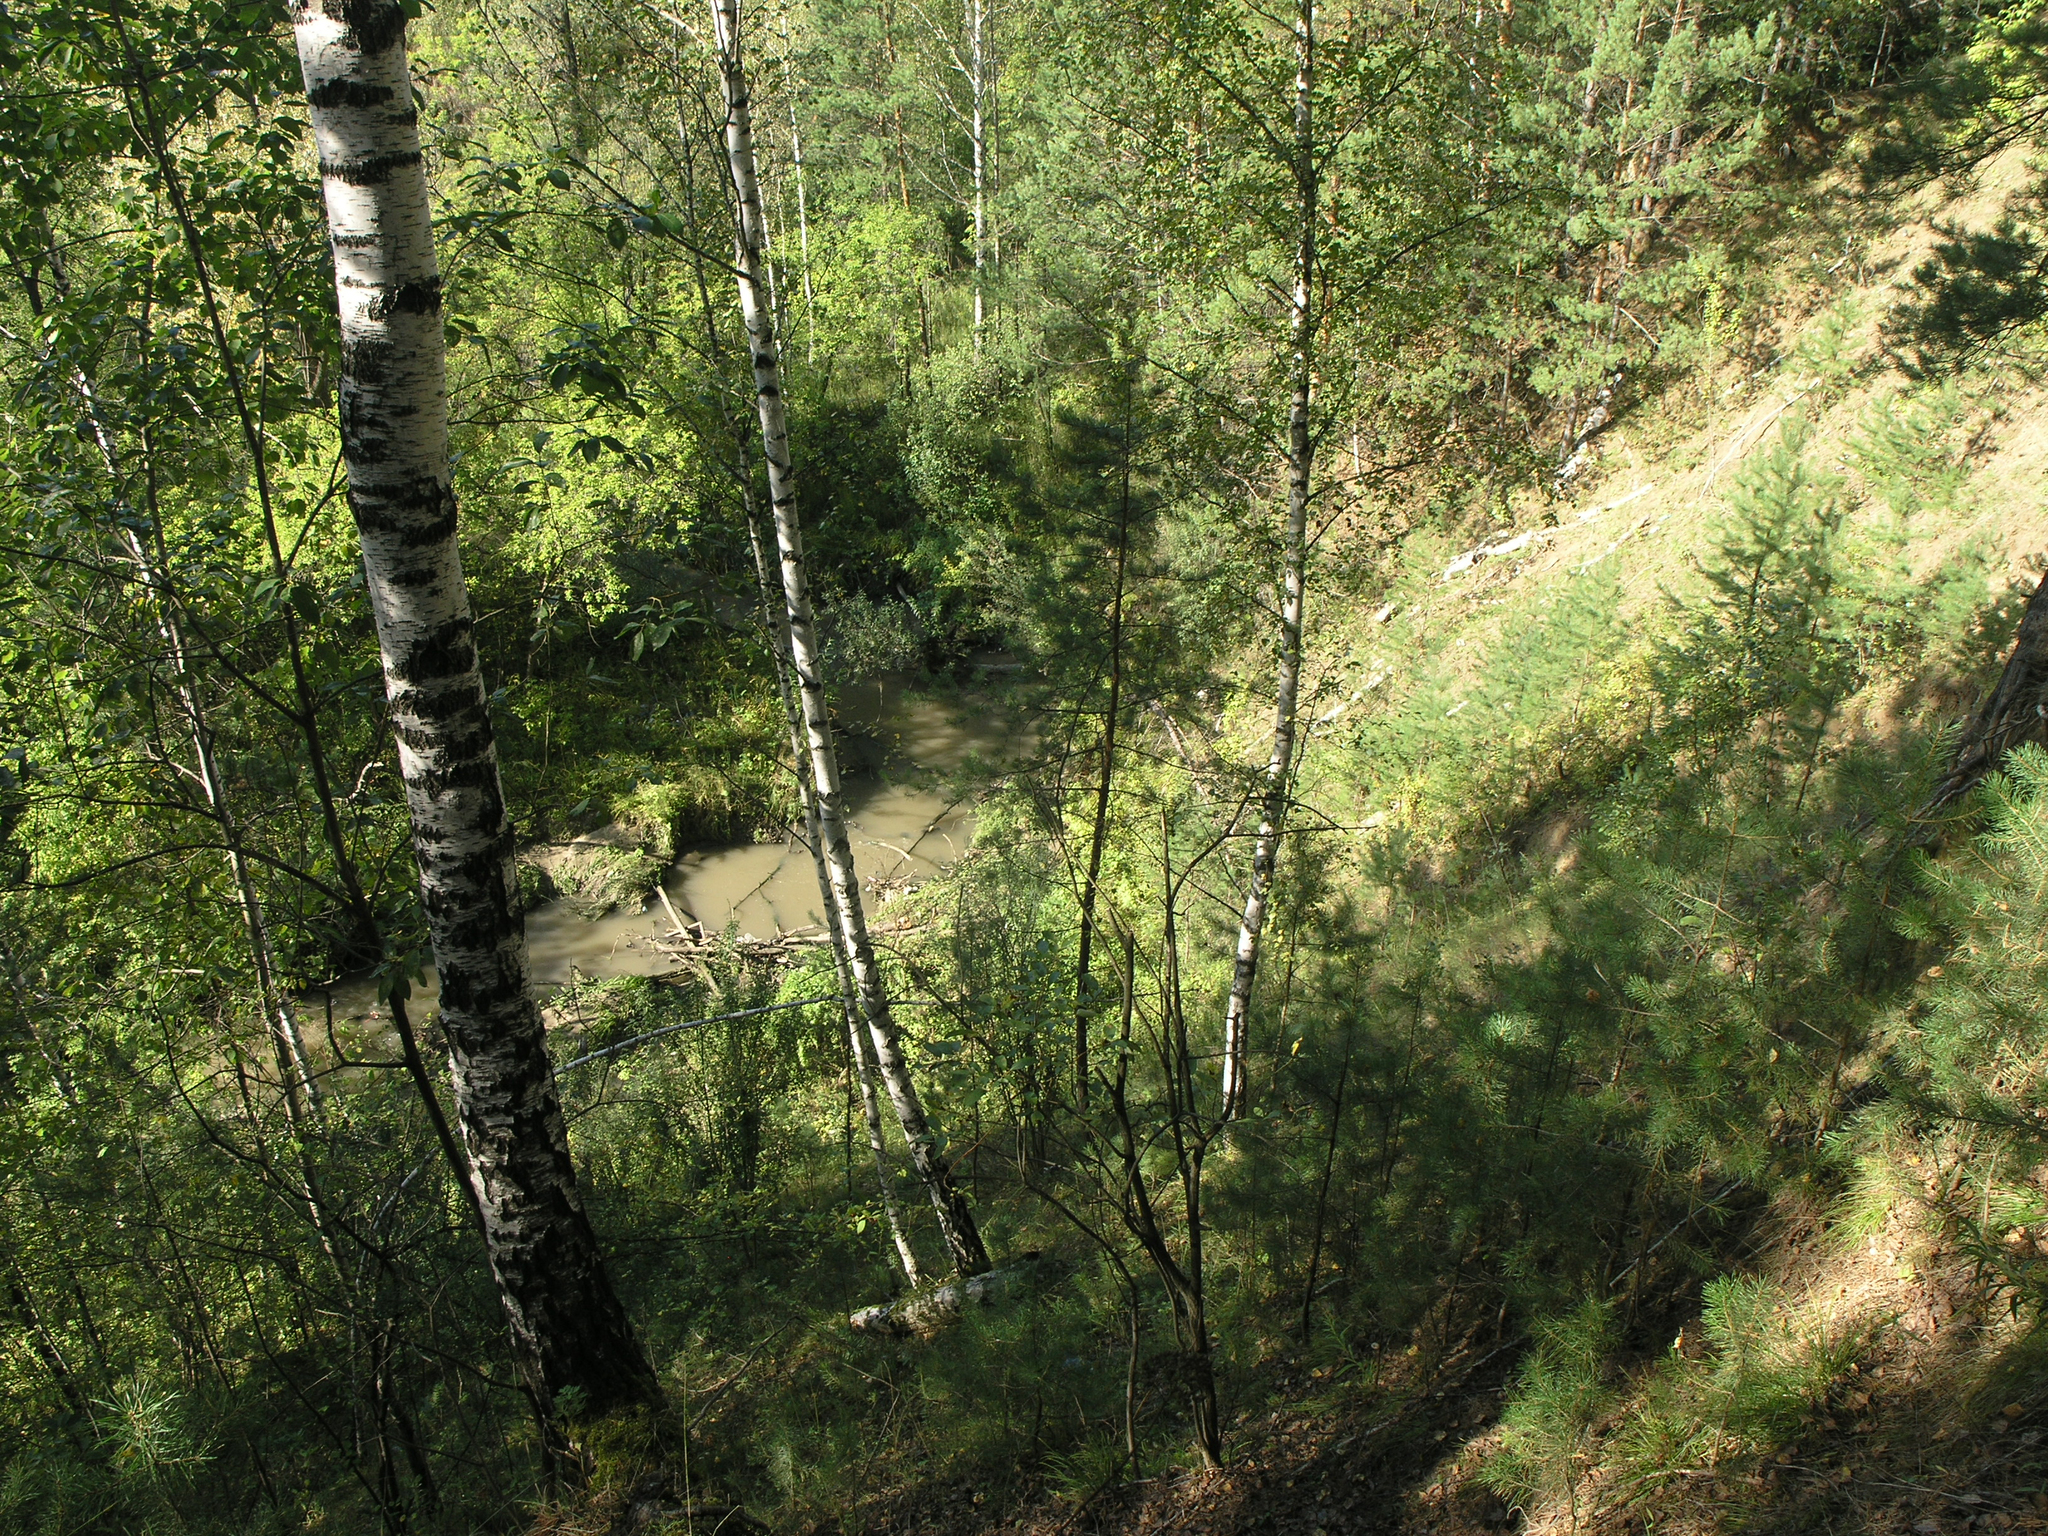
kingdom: Plantae
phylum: Tracheophyta
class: Magnoliopsida
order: Fagales
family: Betulaceae
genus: Betula
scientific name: Betula pendula
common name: Silver birch
